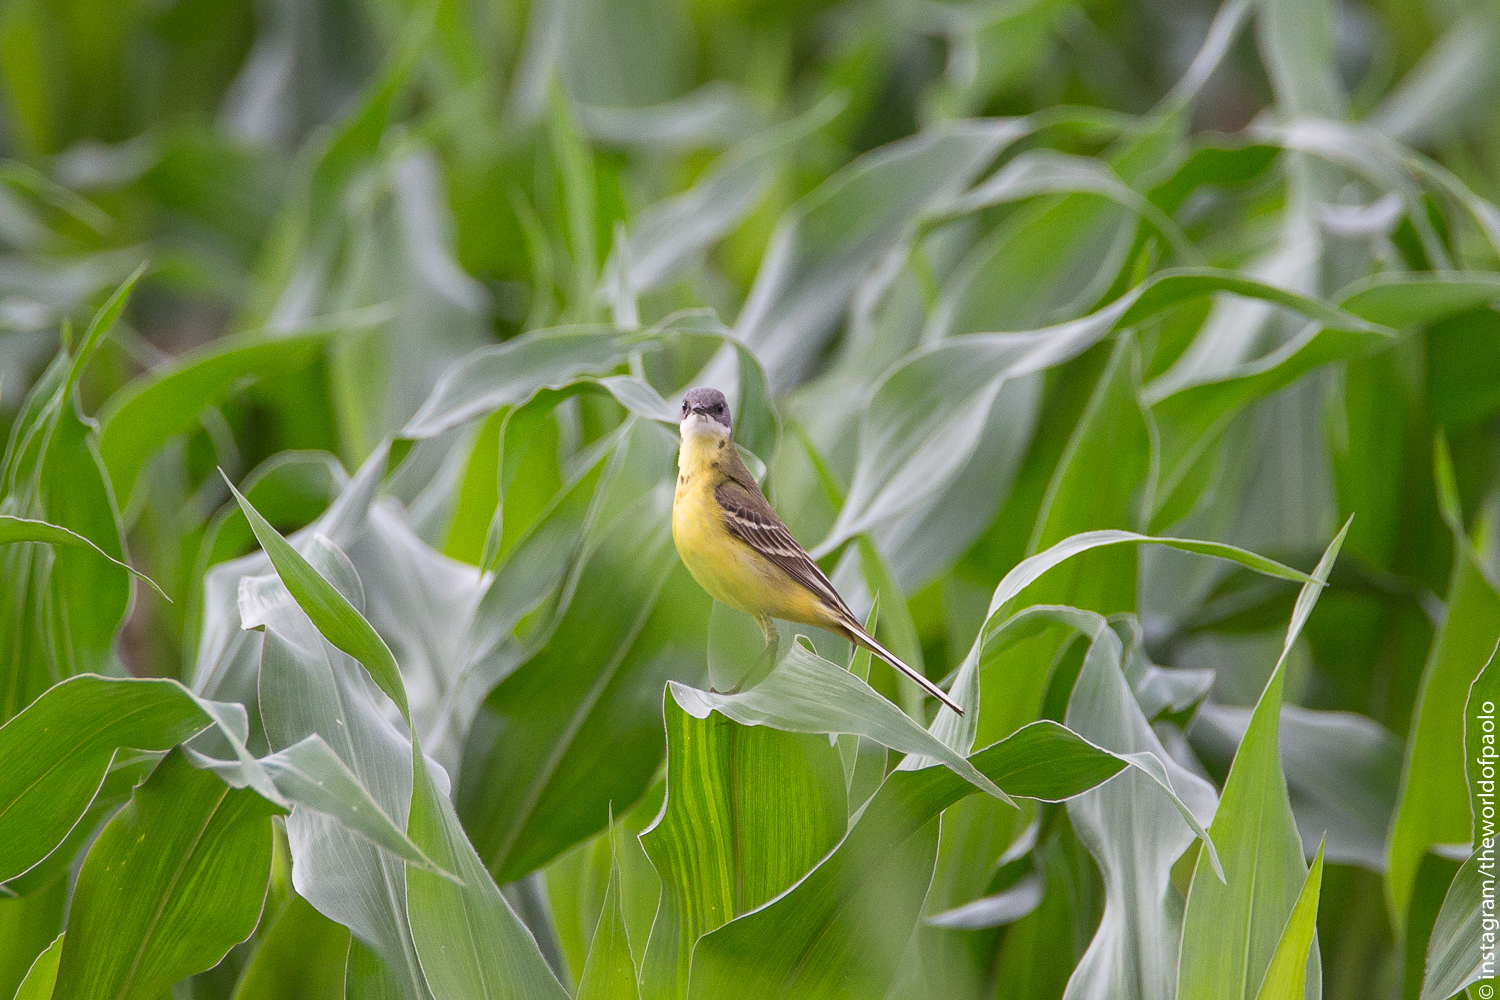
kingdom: Animalia
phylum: Chordata
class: Aves
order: Passeriformes
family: Motacillidae
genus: Motacilla
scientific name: Motacilla flava
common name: Western yellow wagtail
